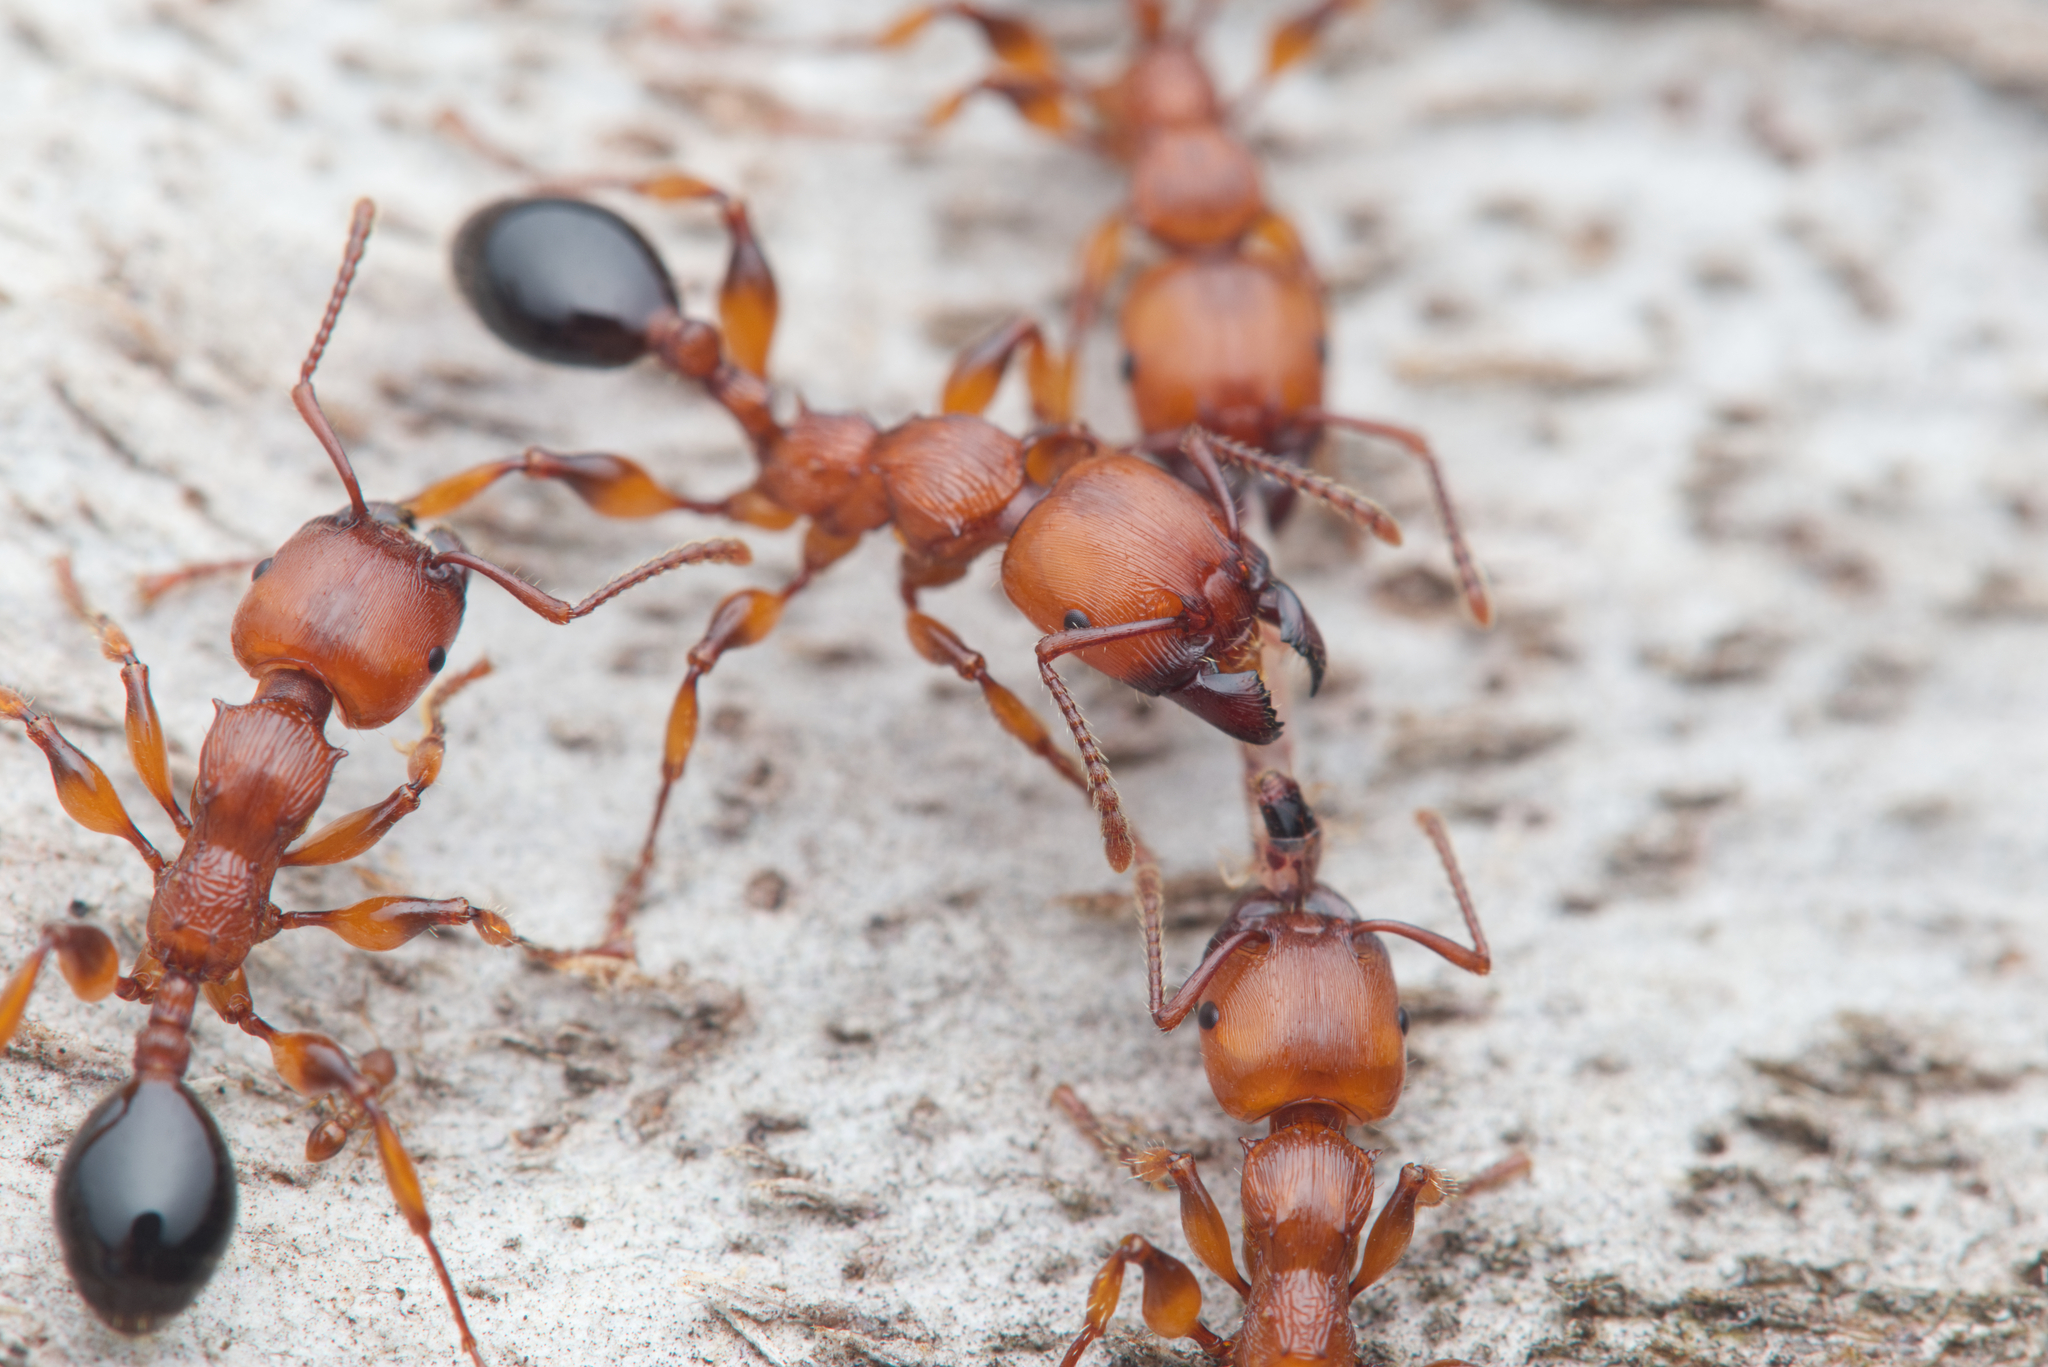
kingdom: Animalia
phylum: Arthropoda
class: Insecta
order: Hymenoptera
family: Formicidae
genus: Podomyrma
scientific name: Podomyrma gratiosa
